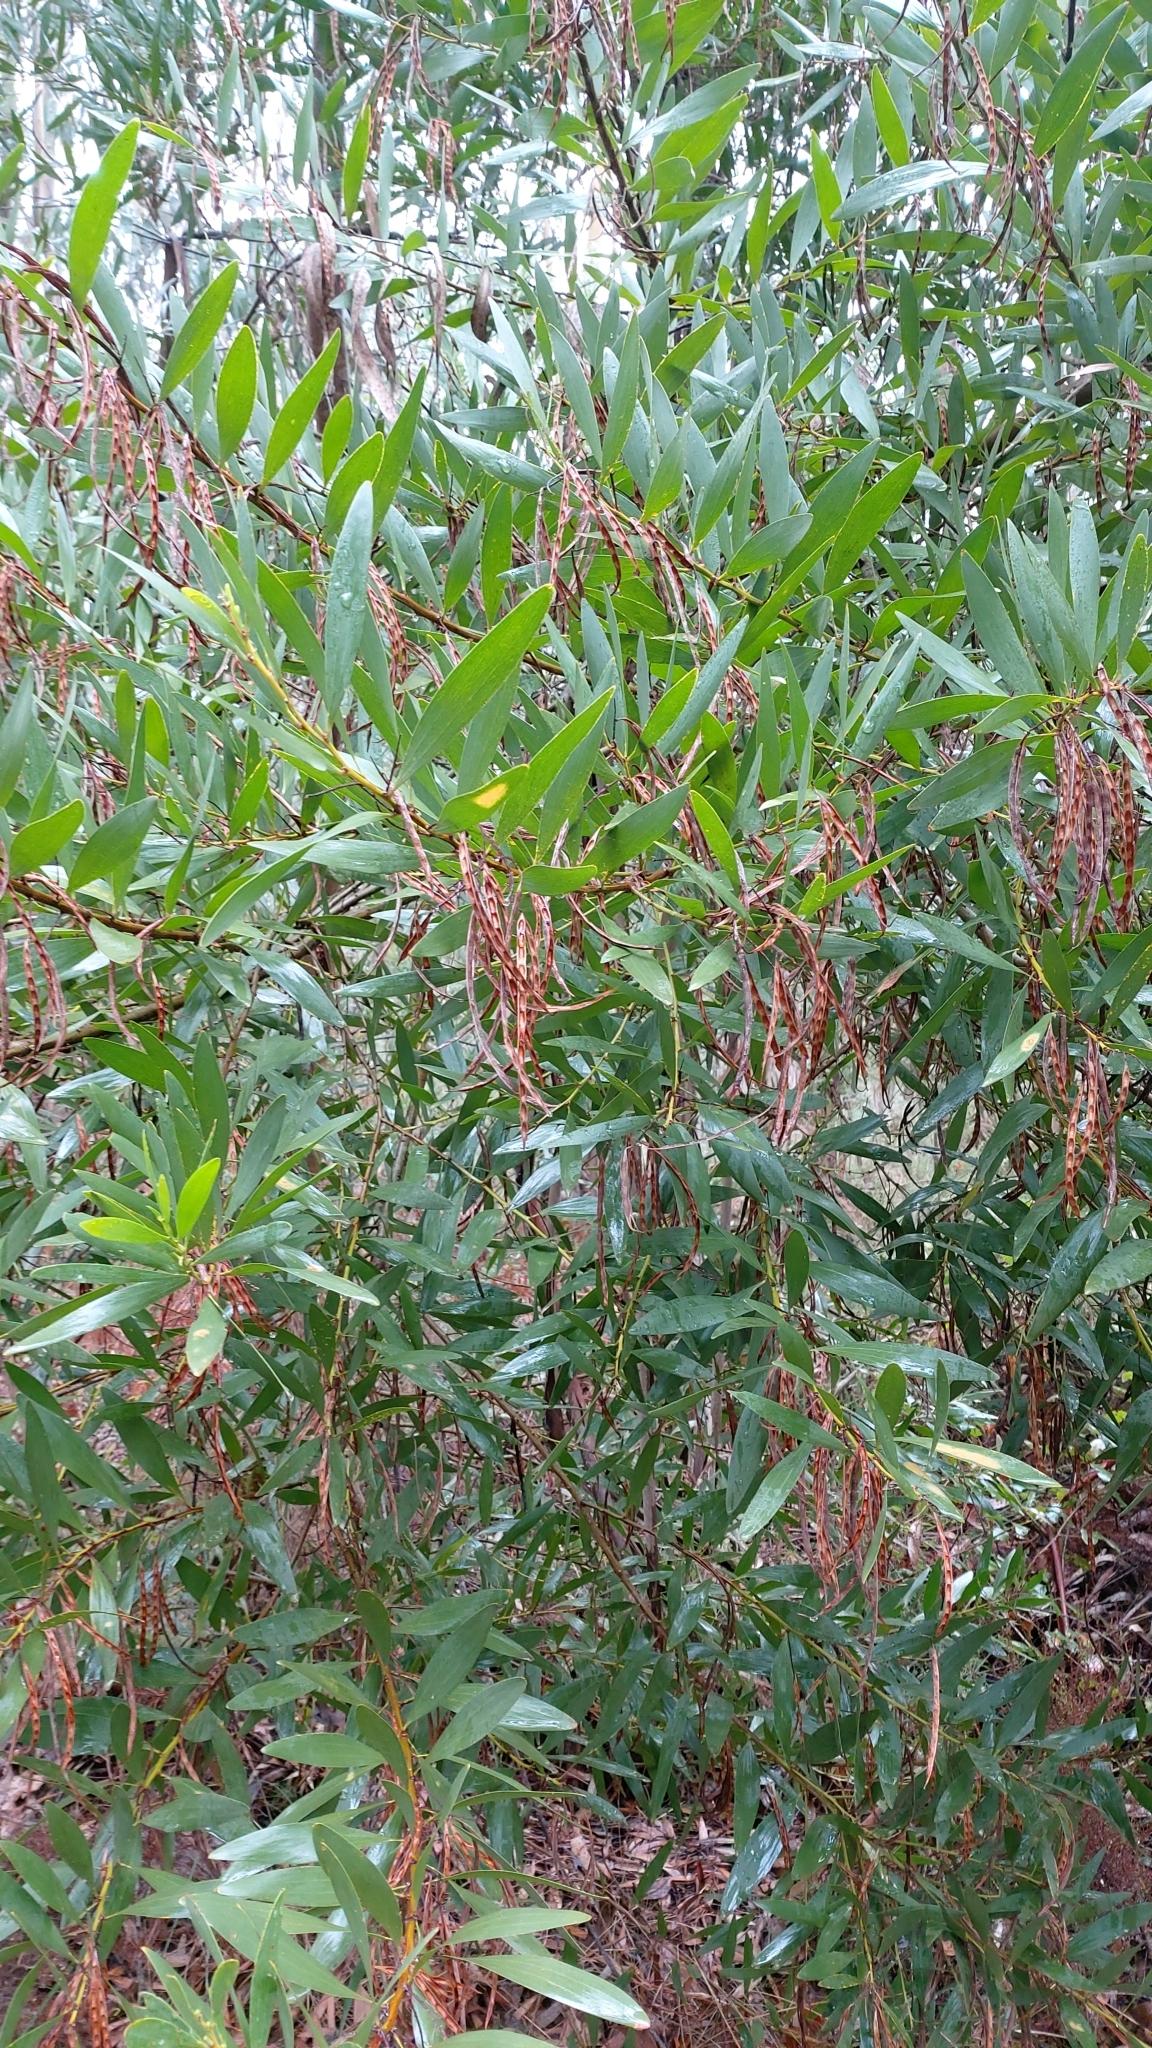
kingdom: Plantae
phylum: Tracheophyta
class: Magnoliopsida
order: Fabales
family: Fabaceae
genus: Acacia
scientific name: Acacia longifolia
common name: Sydney golden wattle
